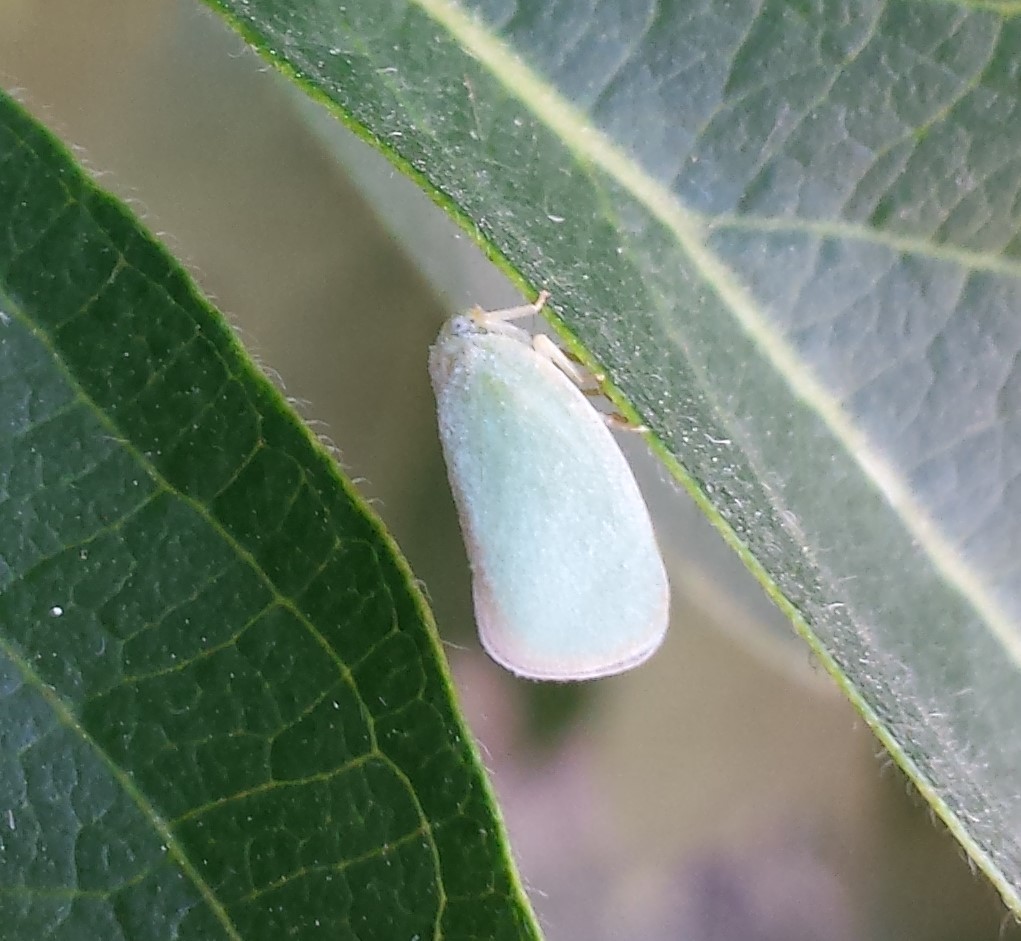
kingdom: Animalia
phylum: Arthropoda
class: Insecta
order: Hemiptera
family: Flatidae
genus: Ormenoides
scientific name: Ormenoides venusta
